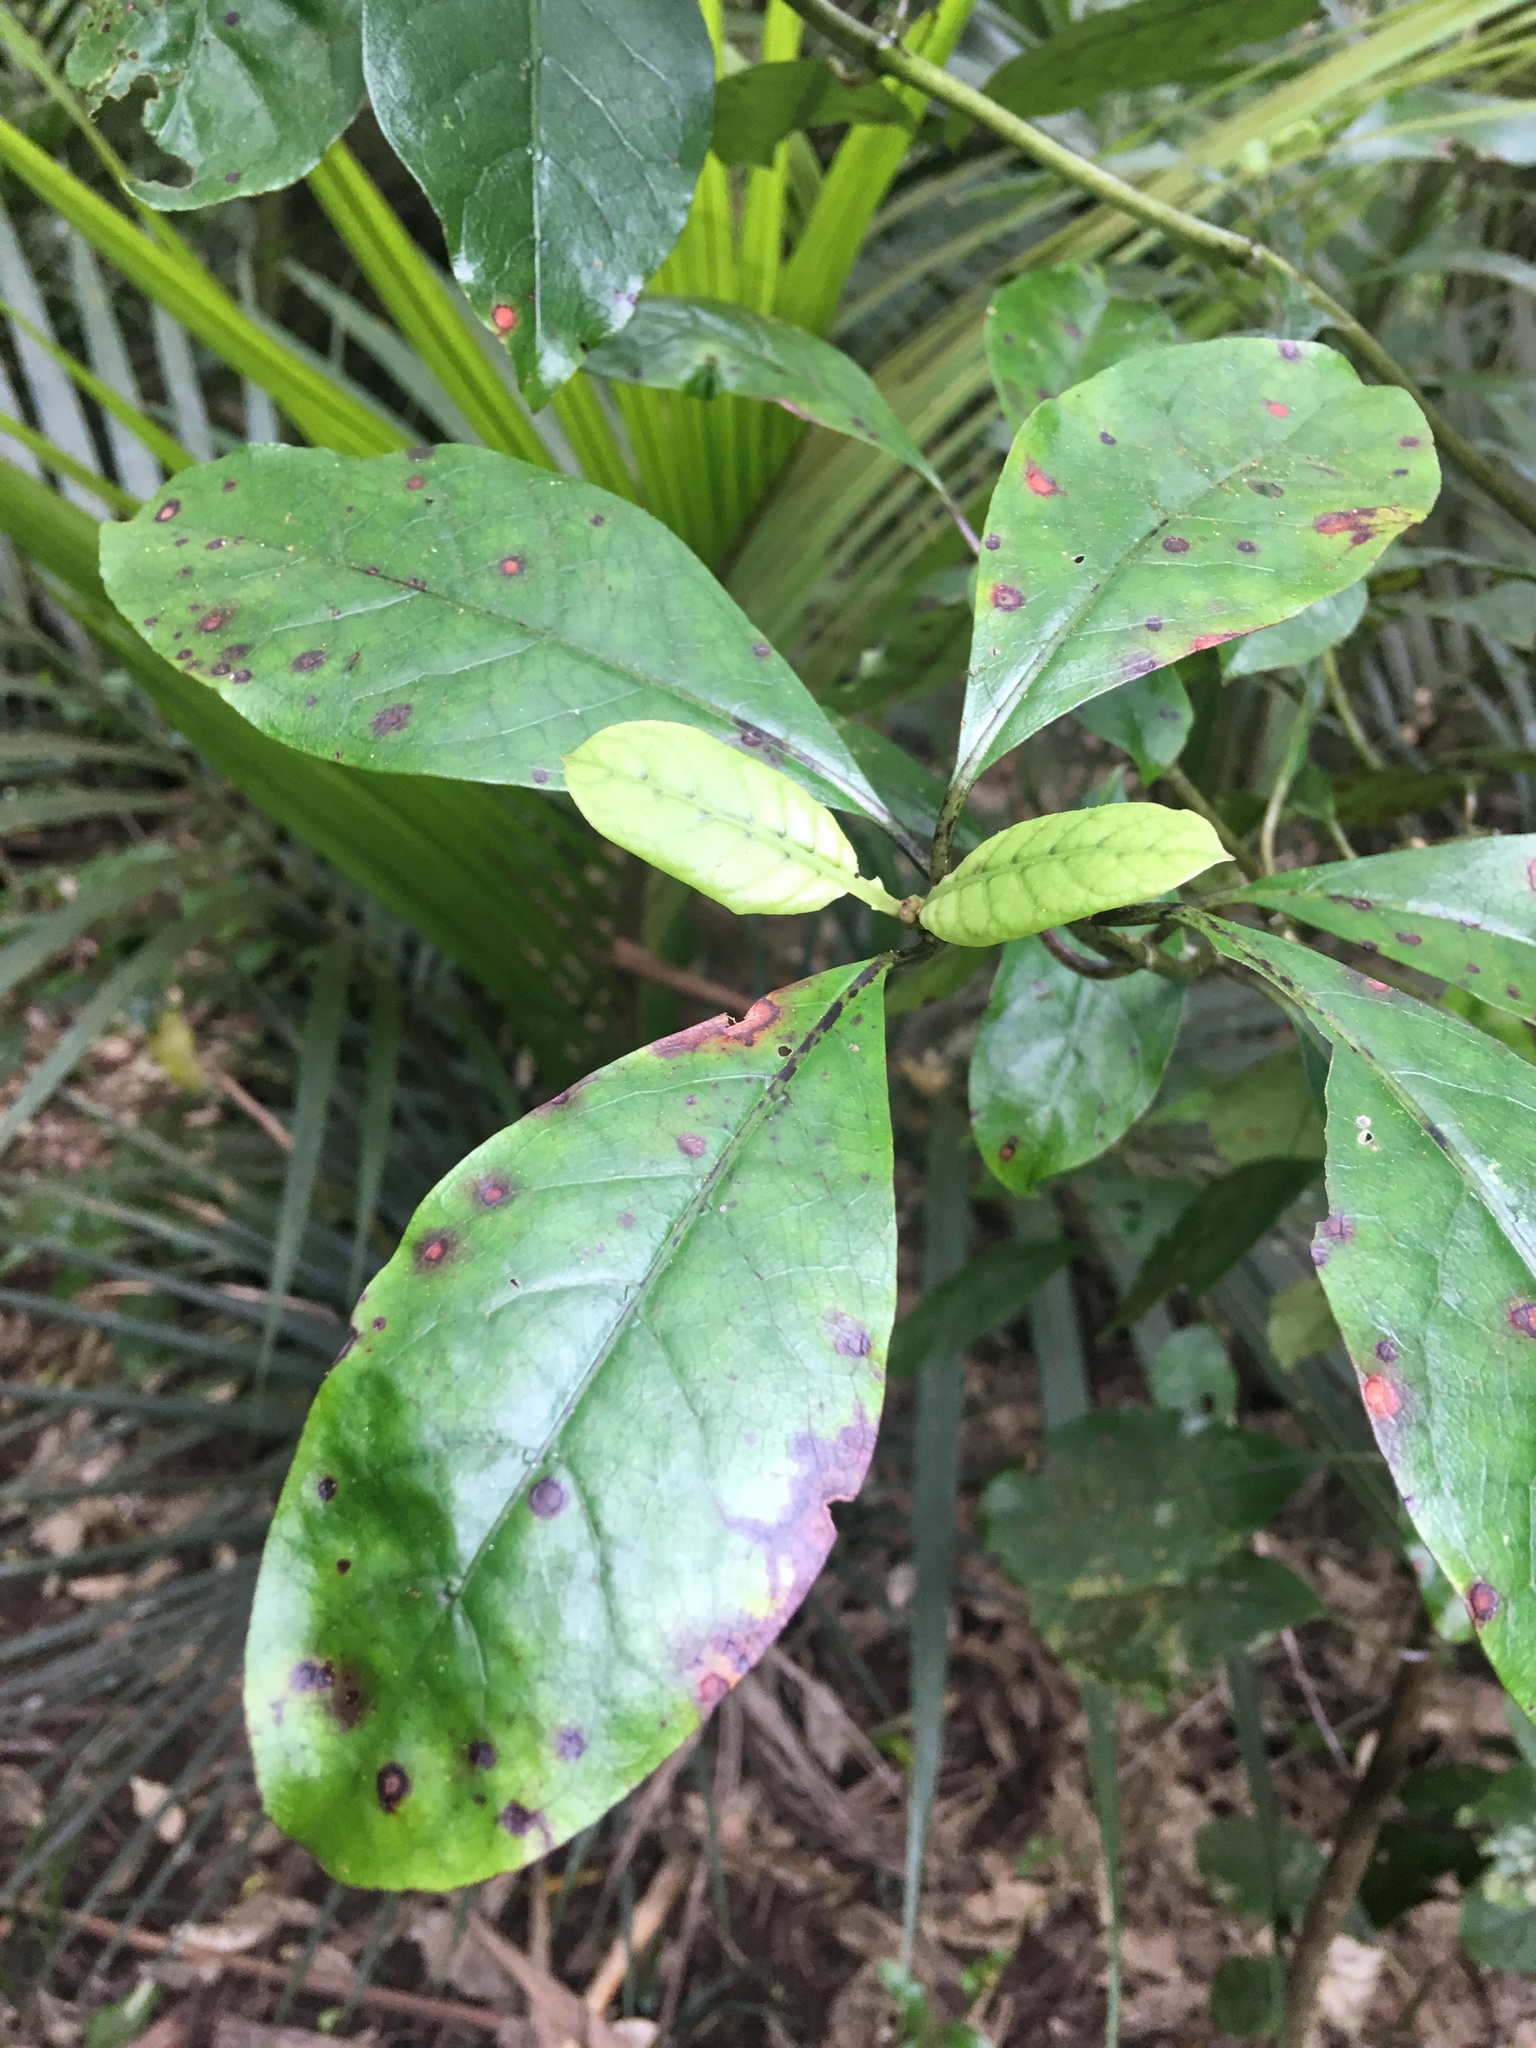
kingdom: Plantae
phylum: Tracheophyta
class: Magnoliopsida
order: Gentianales
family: Rubiaceae
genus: Coprosma
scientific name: Coprosma autumnalis
